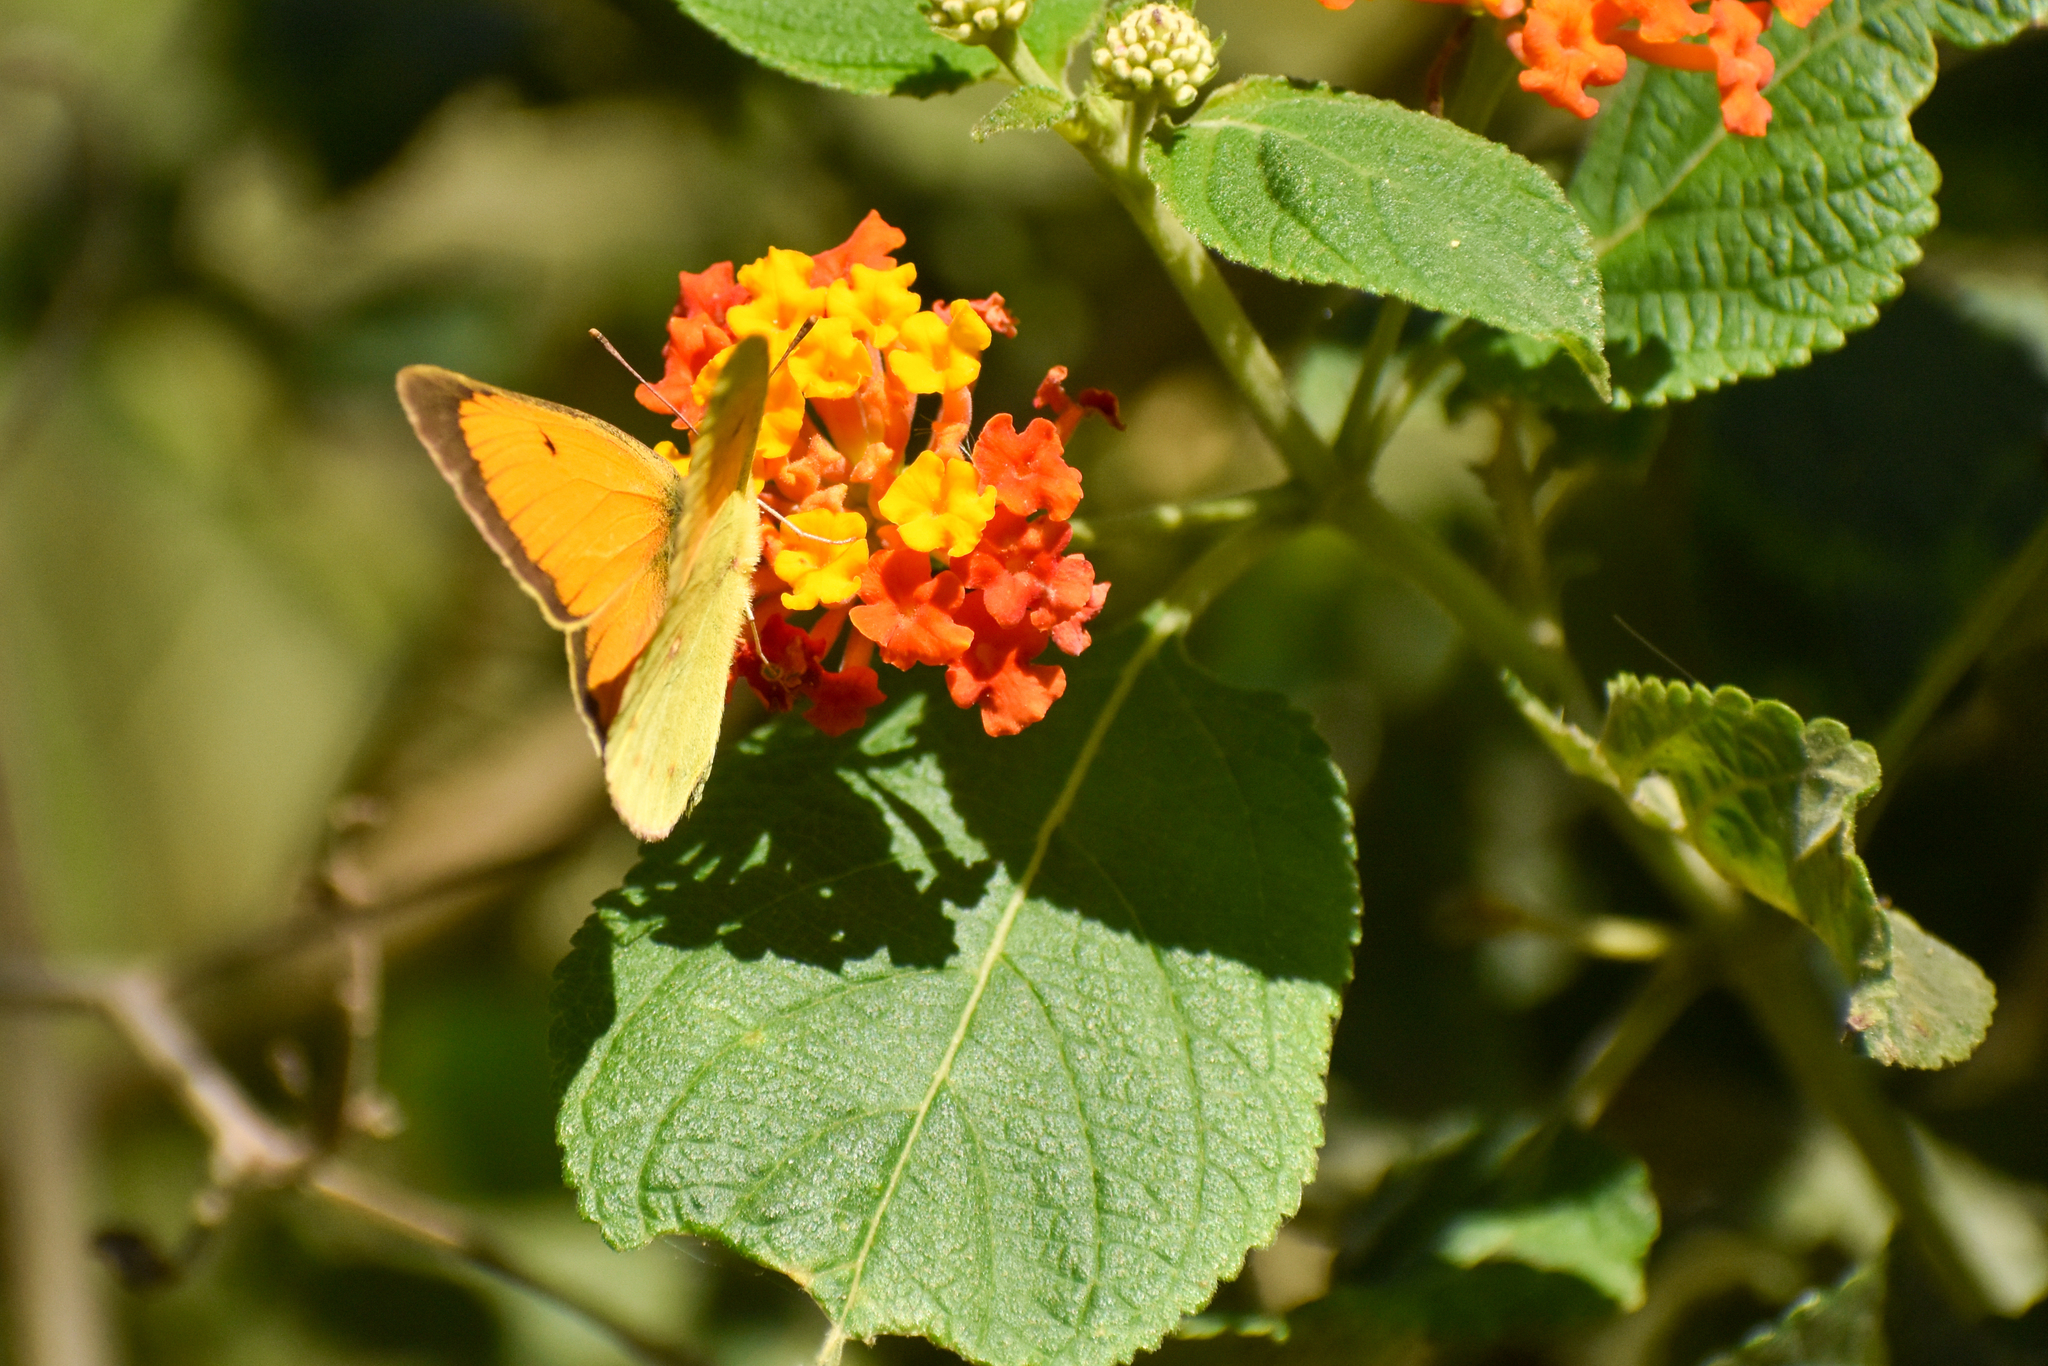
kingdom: Animalia
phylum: Arthropoda
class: Insecta
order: Lepidoptera
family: Pieridae
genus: Colias
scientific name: Colias lesbia
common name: Lesbia clouded yellow
